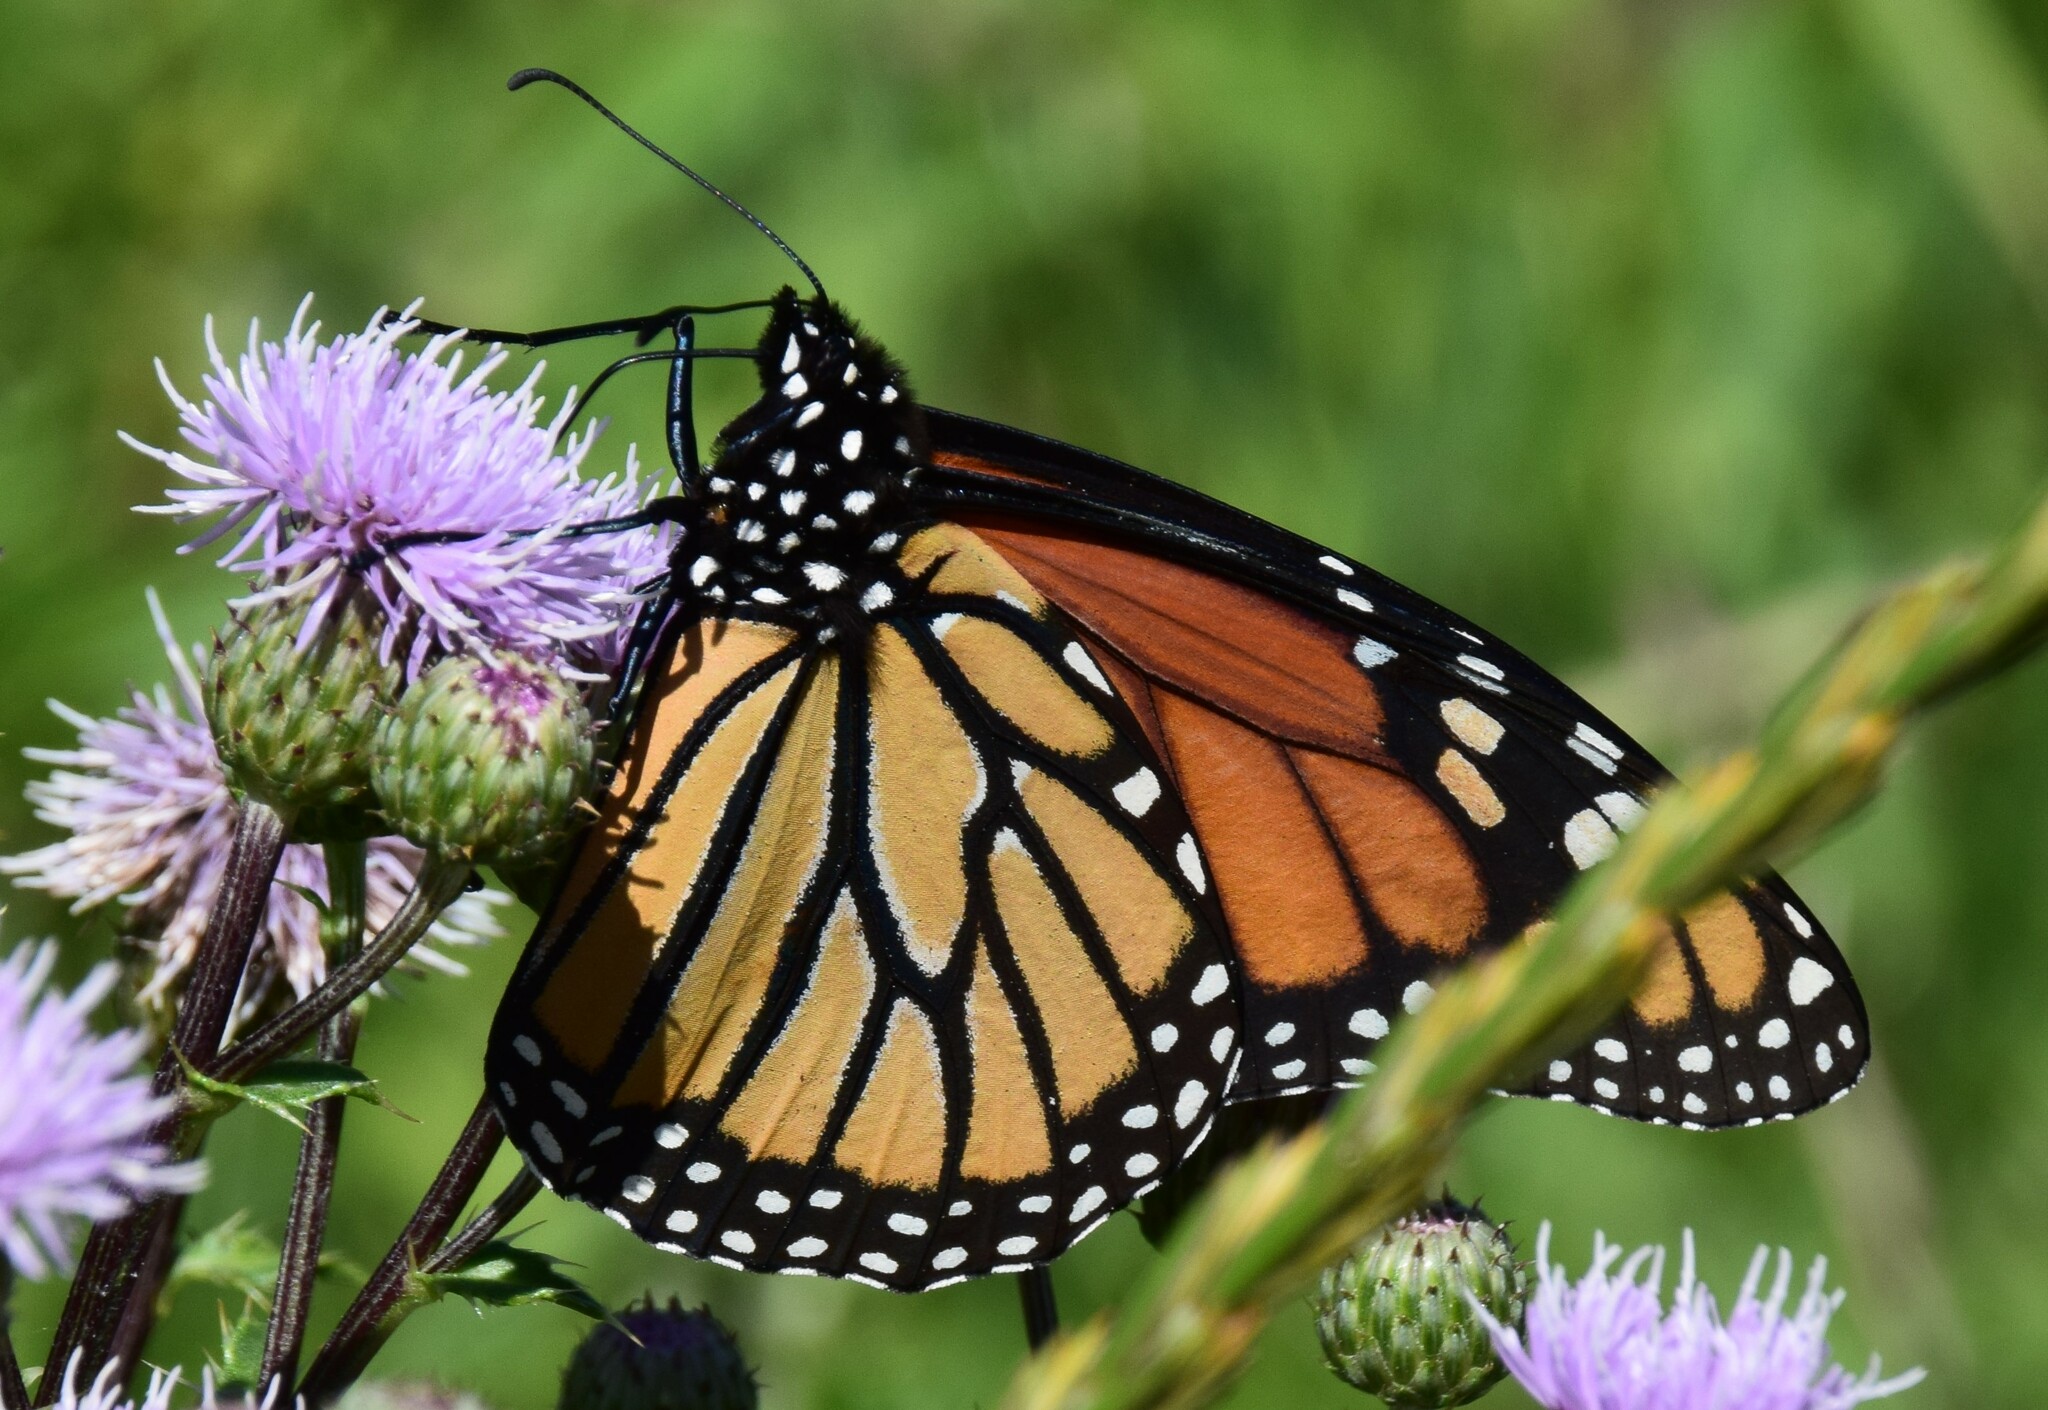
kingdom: Animalia
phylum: Arthropoda
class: Insecta
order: Lepidoptera
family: Nymphalidae
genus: Danaus
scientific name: Danaus plexippus
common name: Monarch
